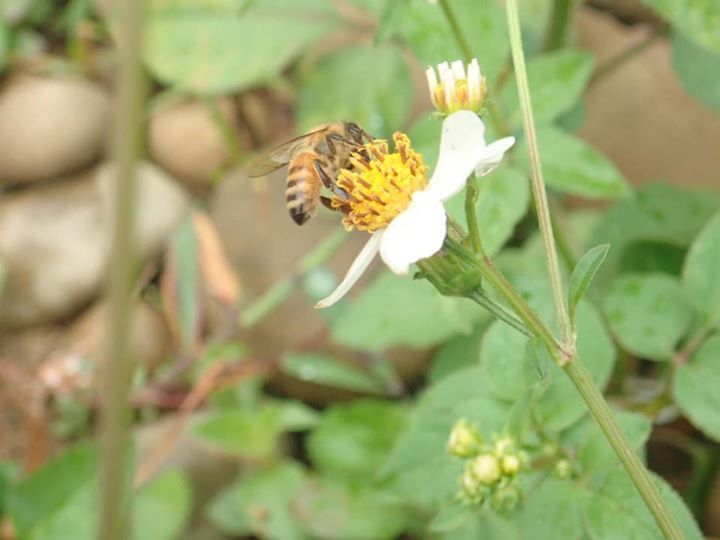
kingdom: Animalia
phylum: Arthropoda
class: Insecta
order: Hymenoptera
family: Apidae
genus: Apis
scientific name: Apis mellifera
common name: Honey bee
